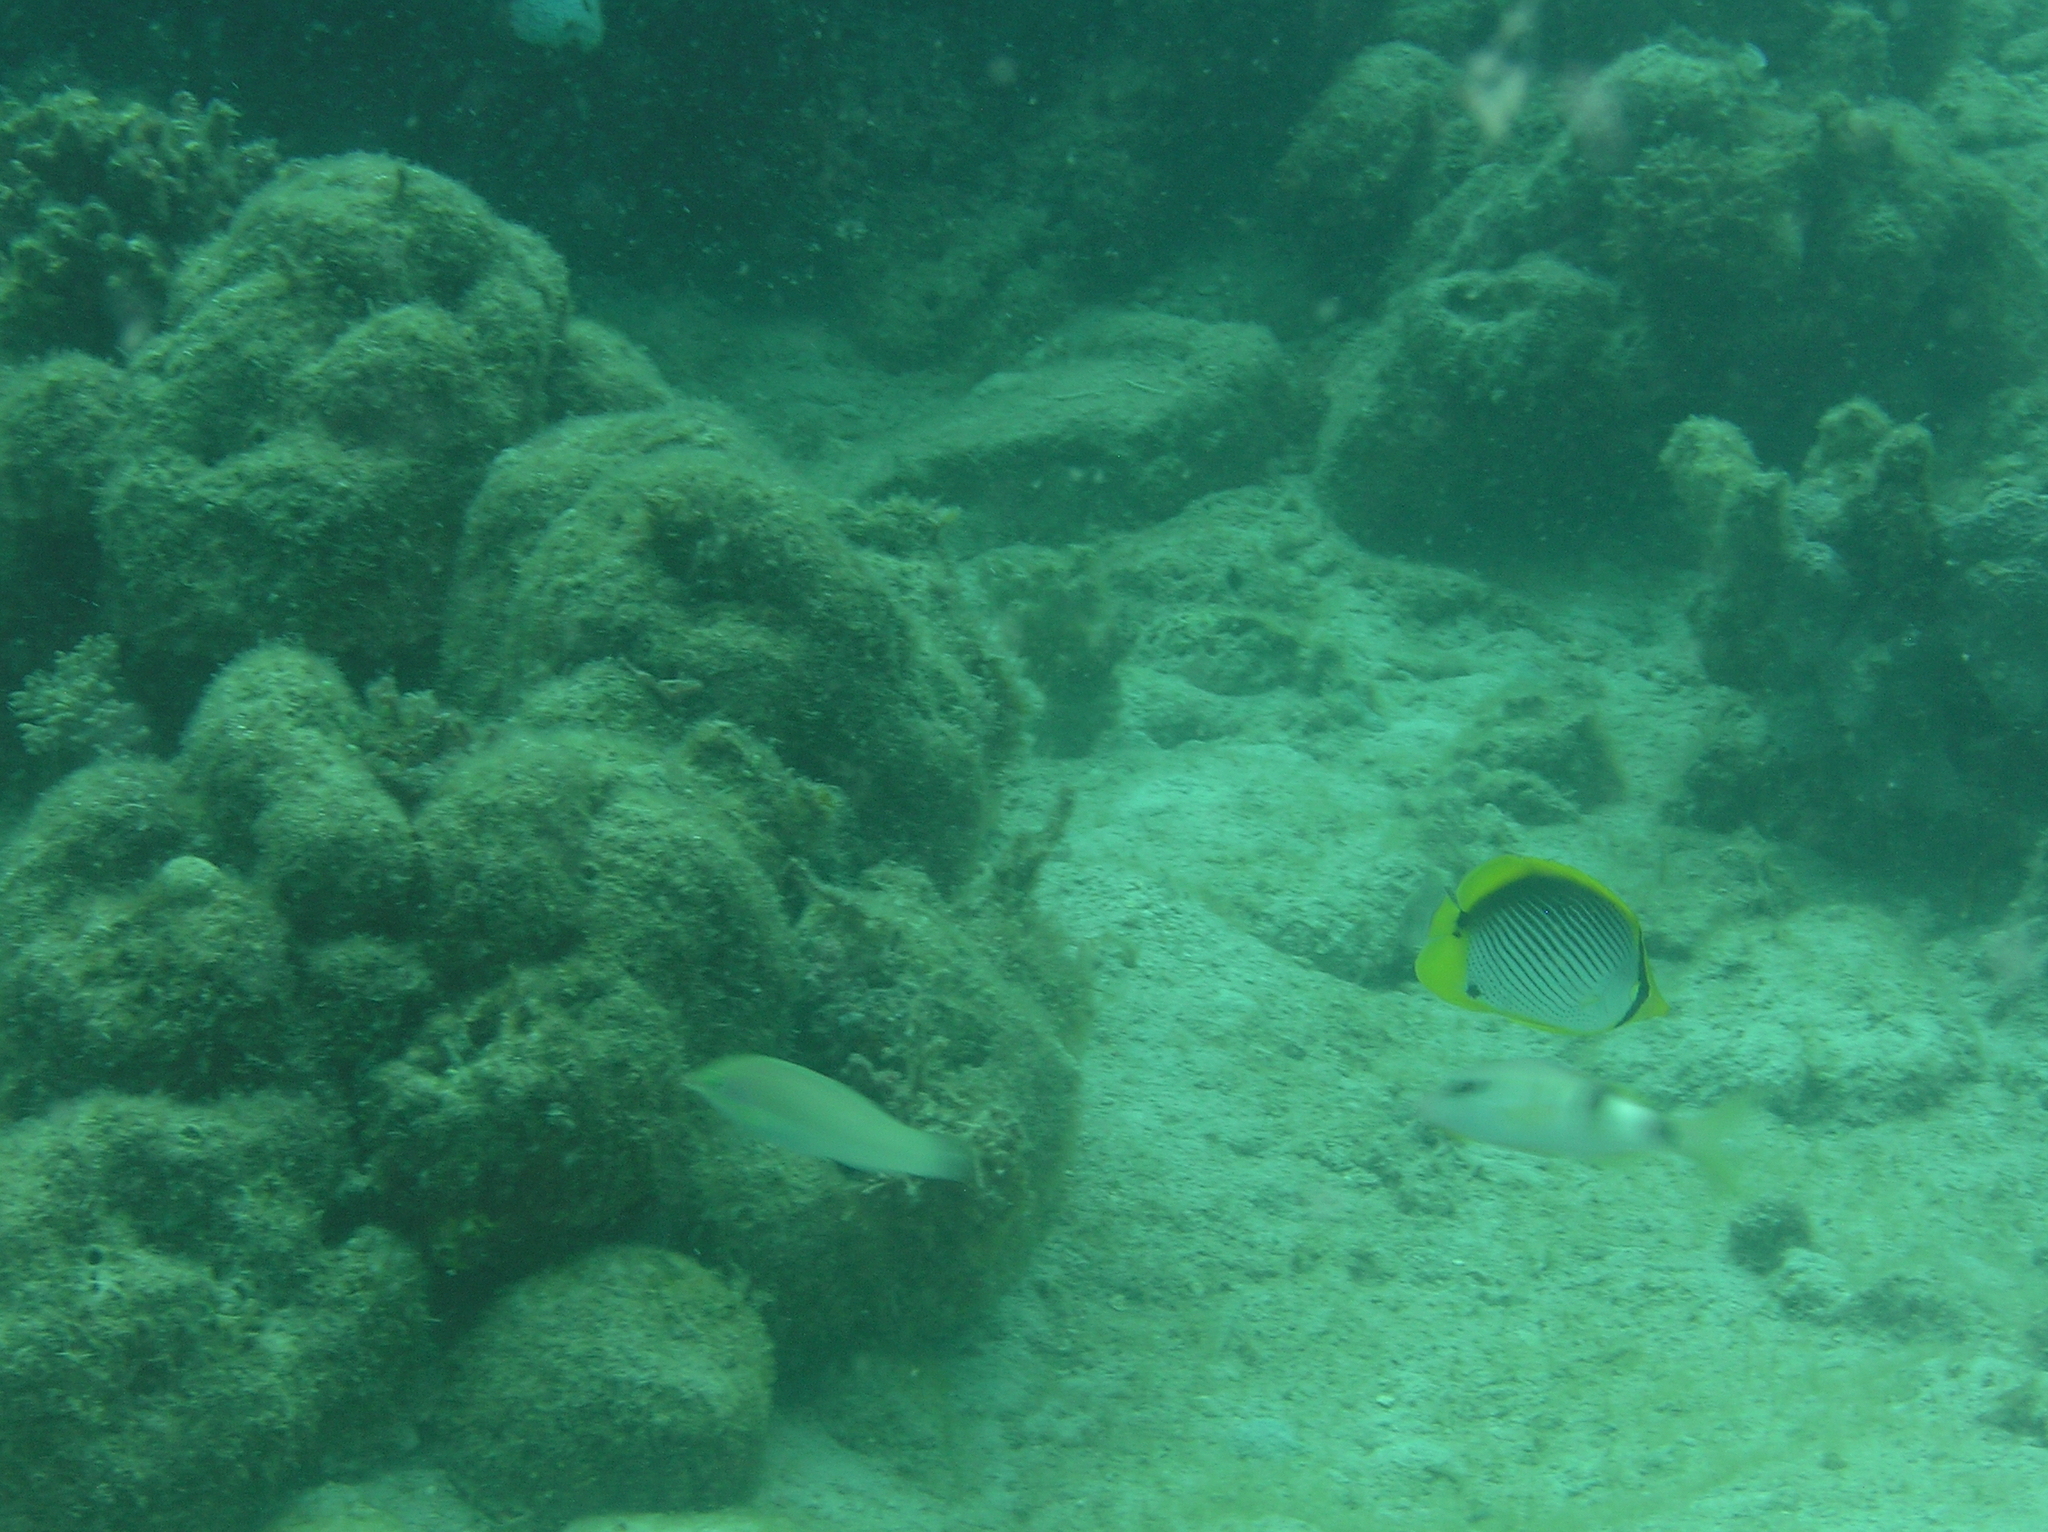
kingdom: Animalia
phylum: Chordata
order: Perciformes
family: Chaetodontidae
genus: Chaetodon
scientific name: Chaetodon melannotus
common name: Blackback butterflyfish
